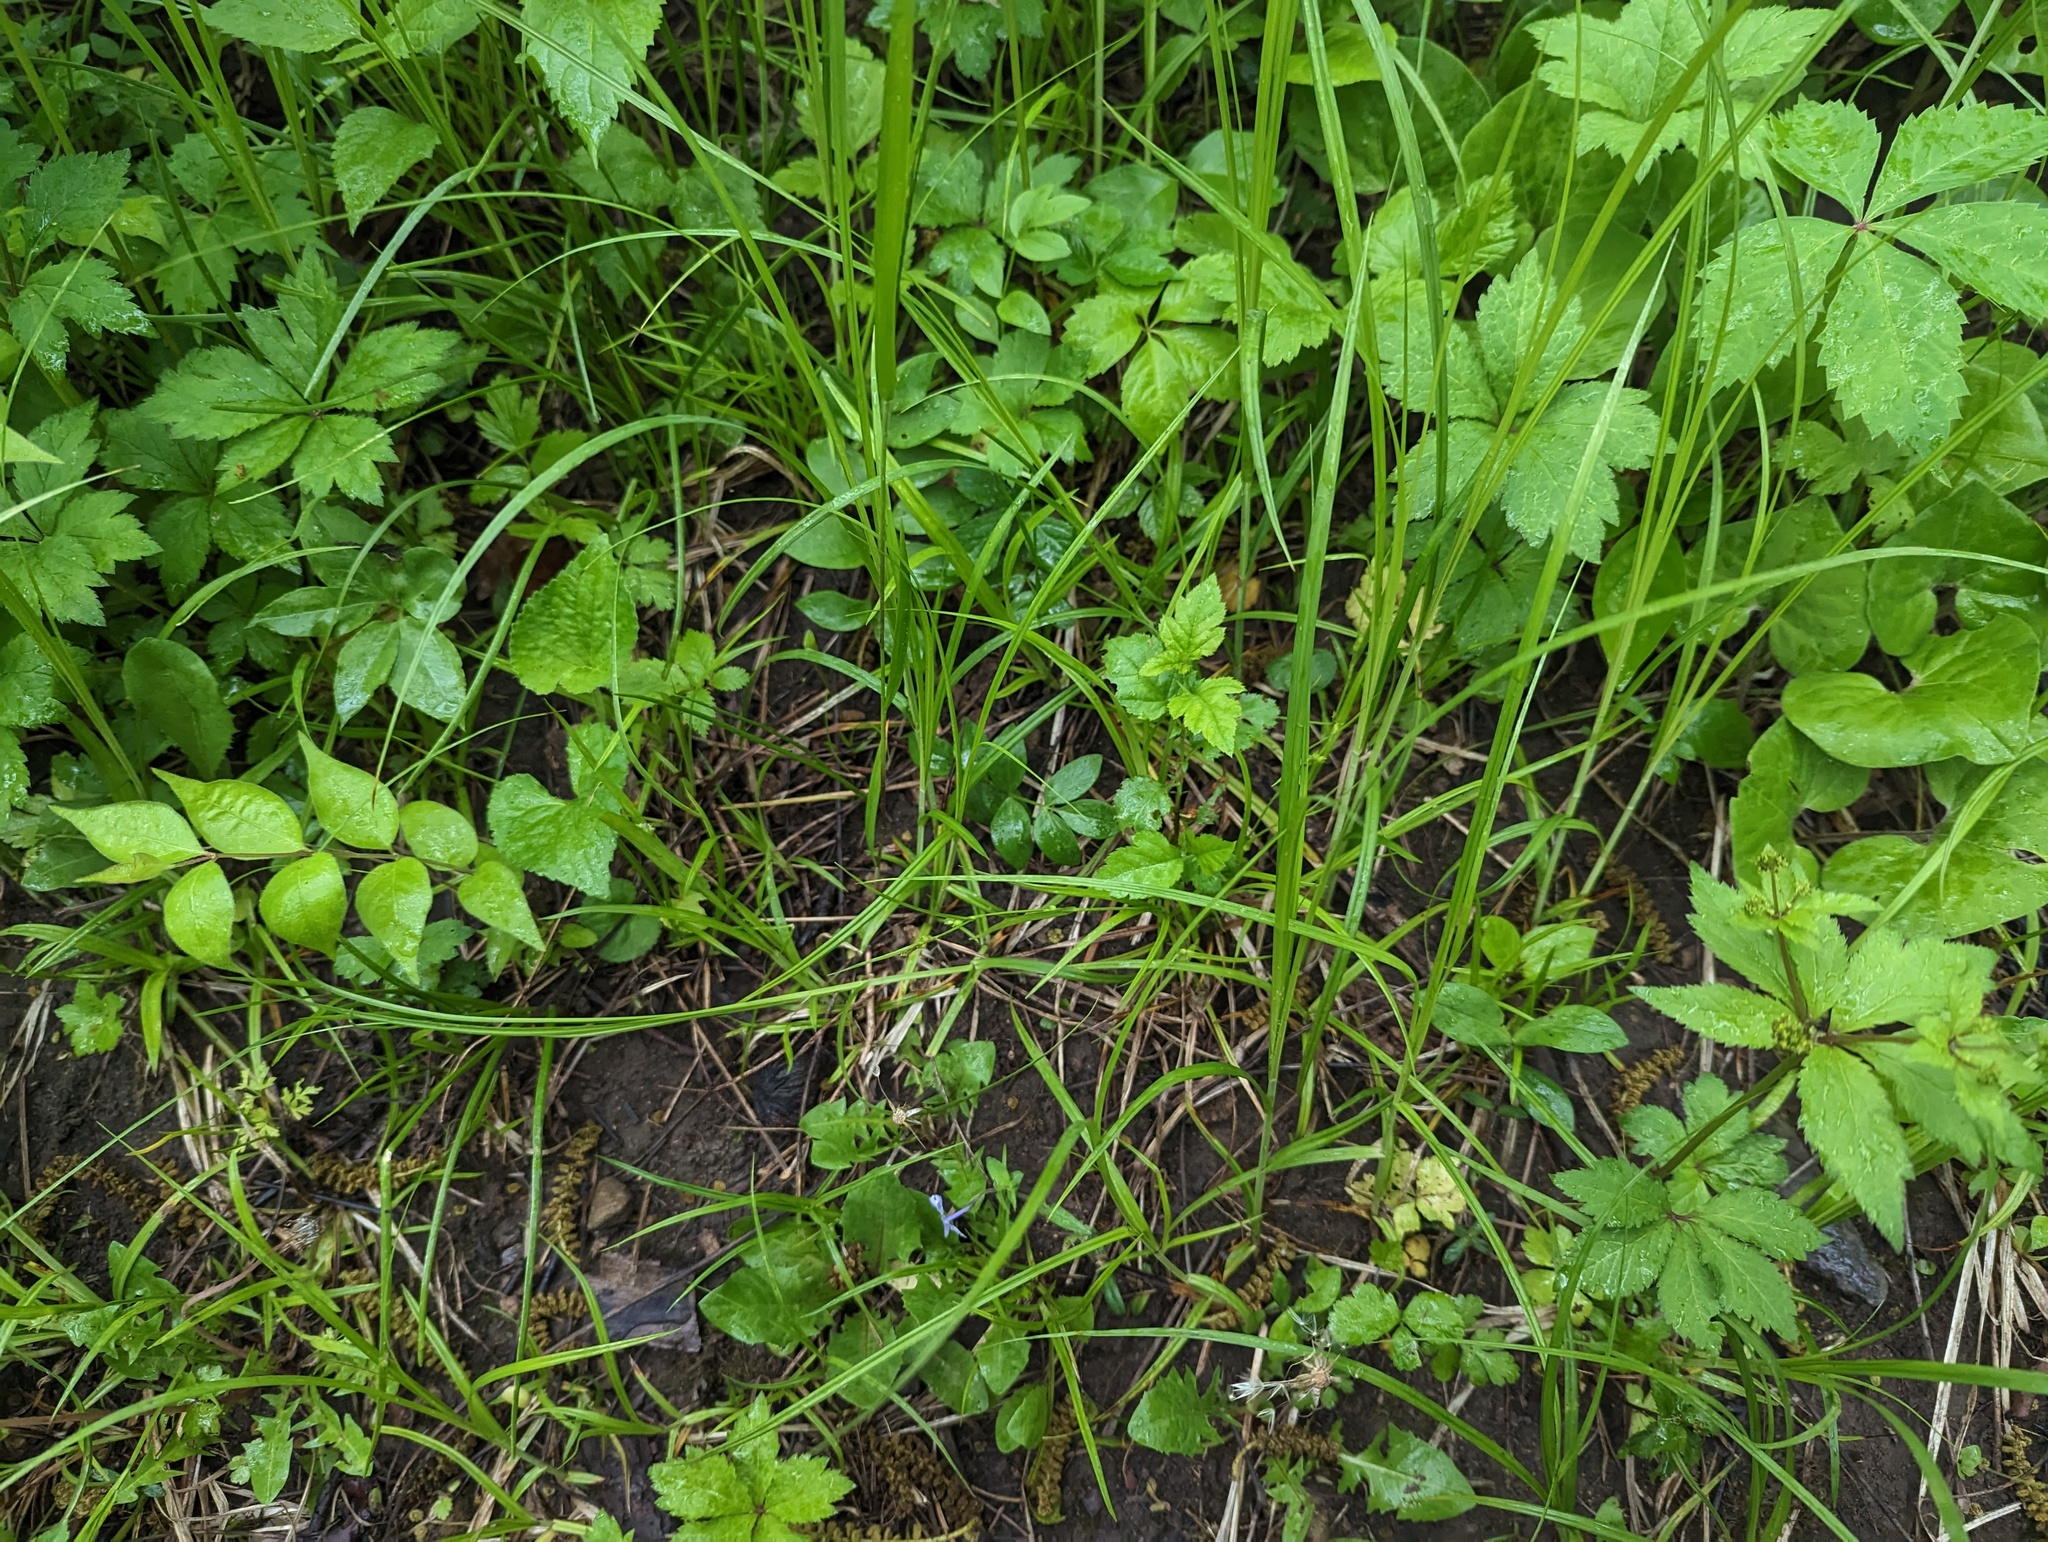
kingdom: Plantae
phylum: Tracheophyta
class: Liliopsida
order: Poales
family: Cyperaceae
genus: Carex
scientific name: Carex jamesii
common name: Grass sedge
